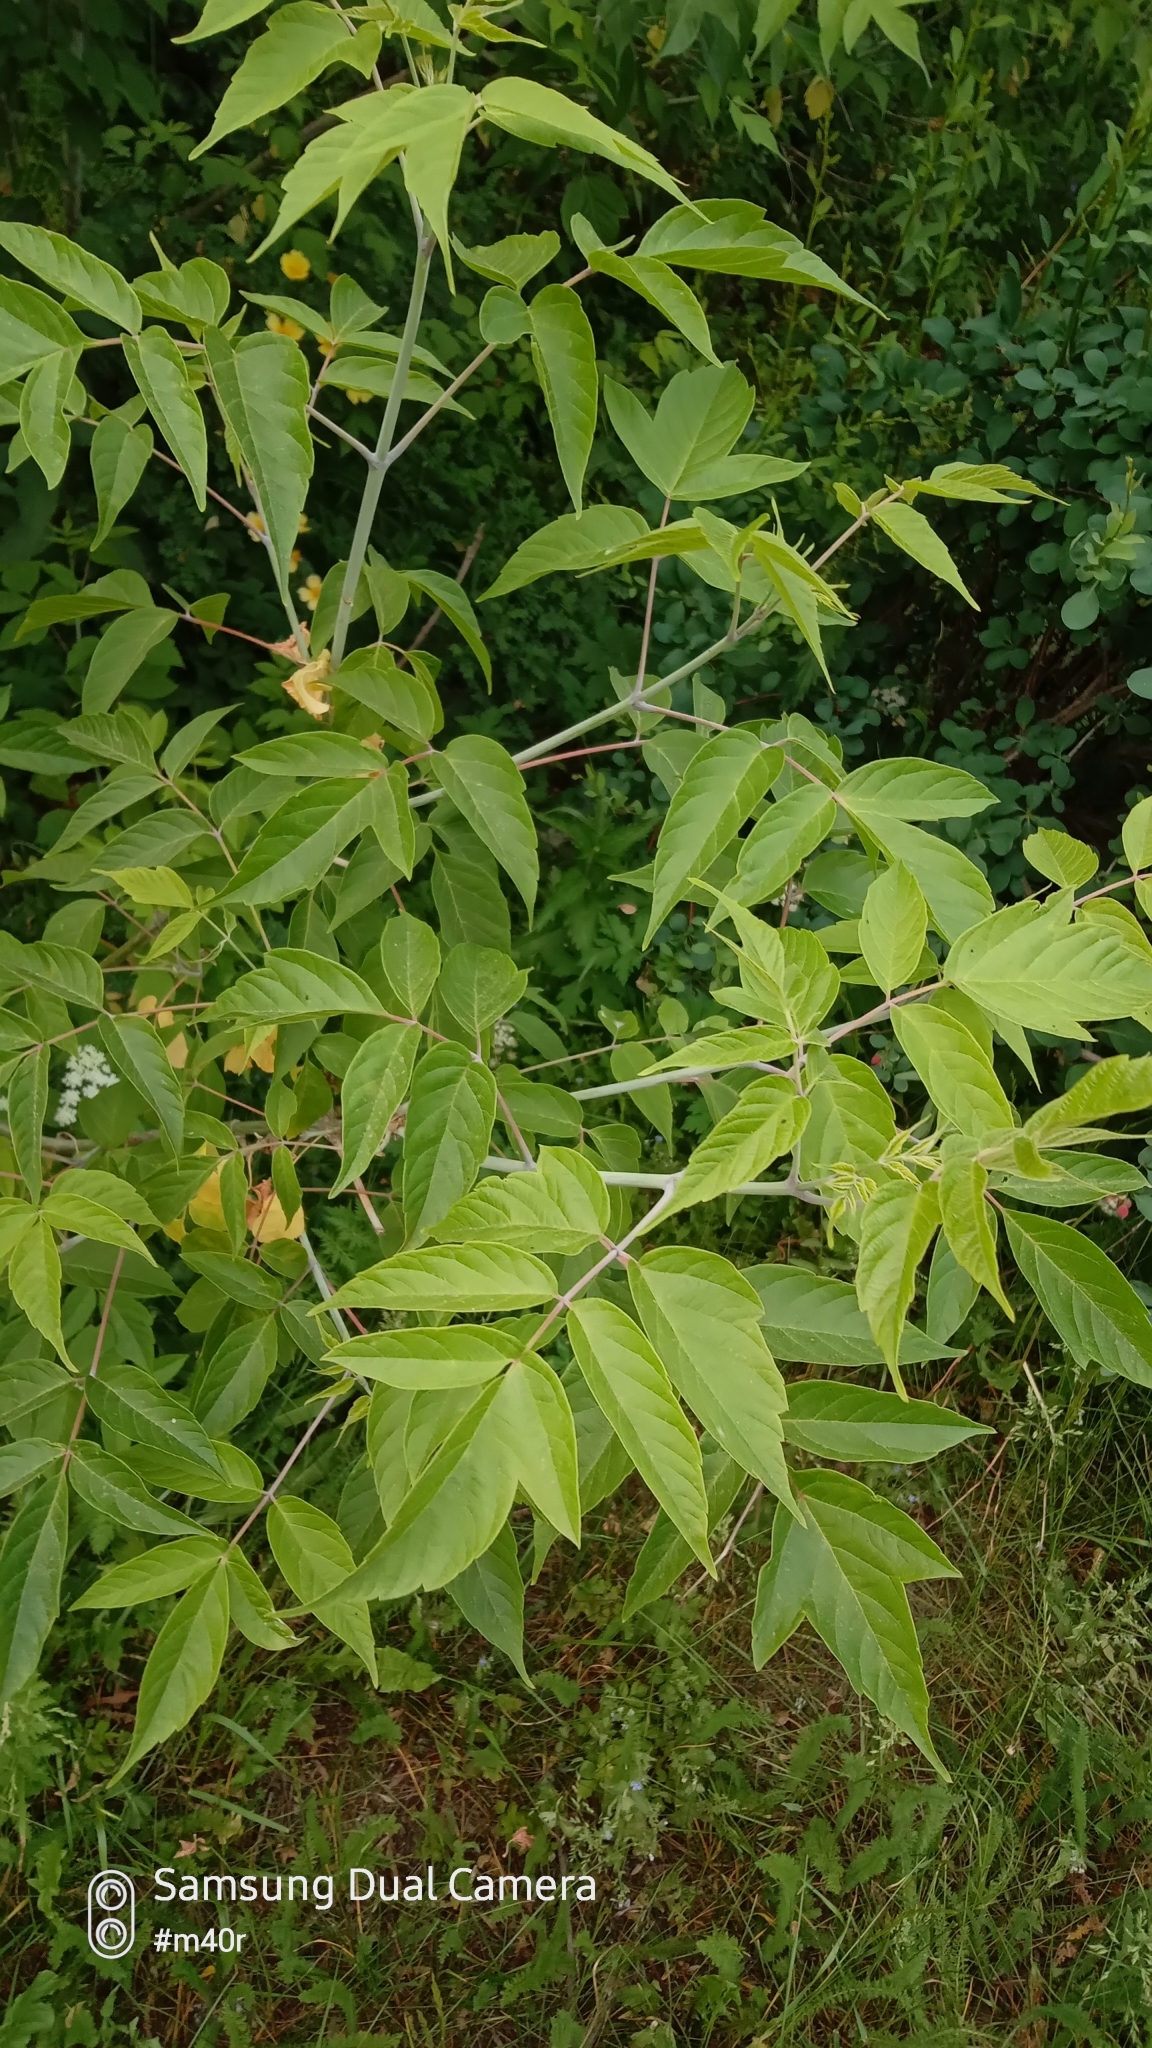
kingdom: Plantae
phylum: Tracheophyta
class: Magnoliopsida
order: Sapindales
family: Sapindaceae
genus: Acer
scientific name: Acer negundo
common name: Ashleaf maple
